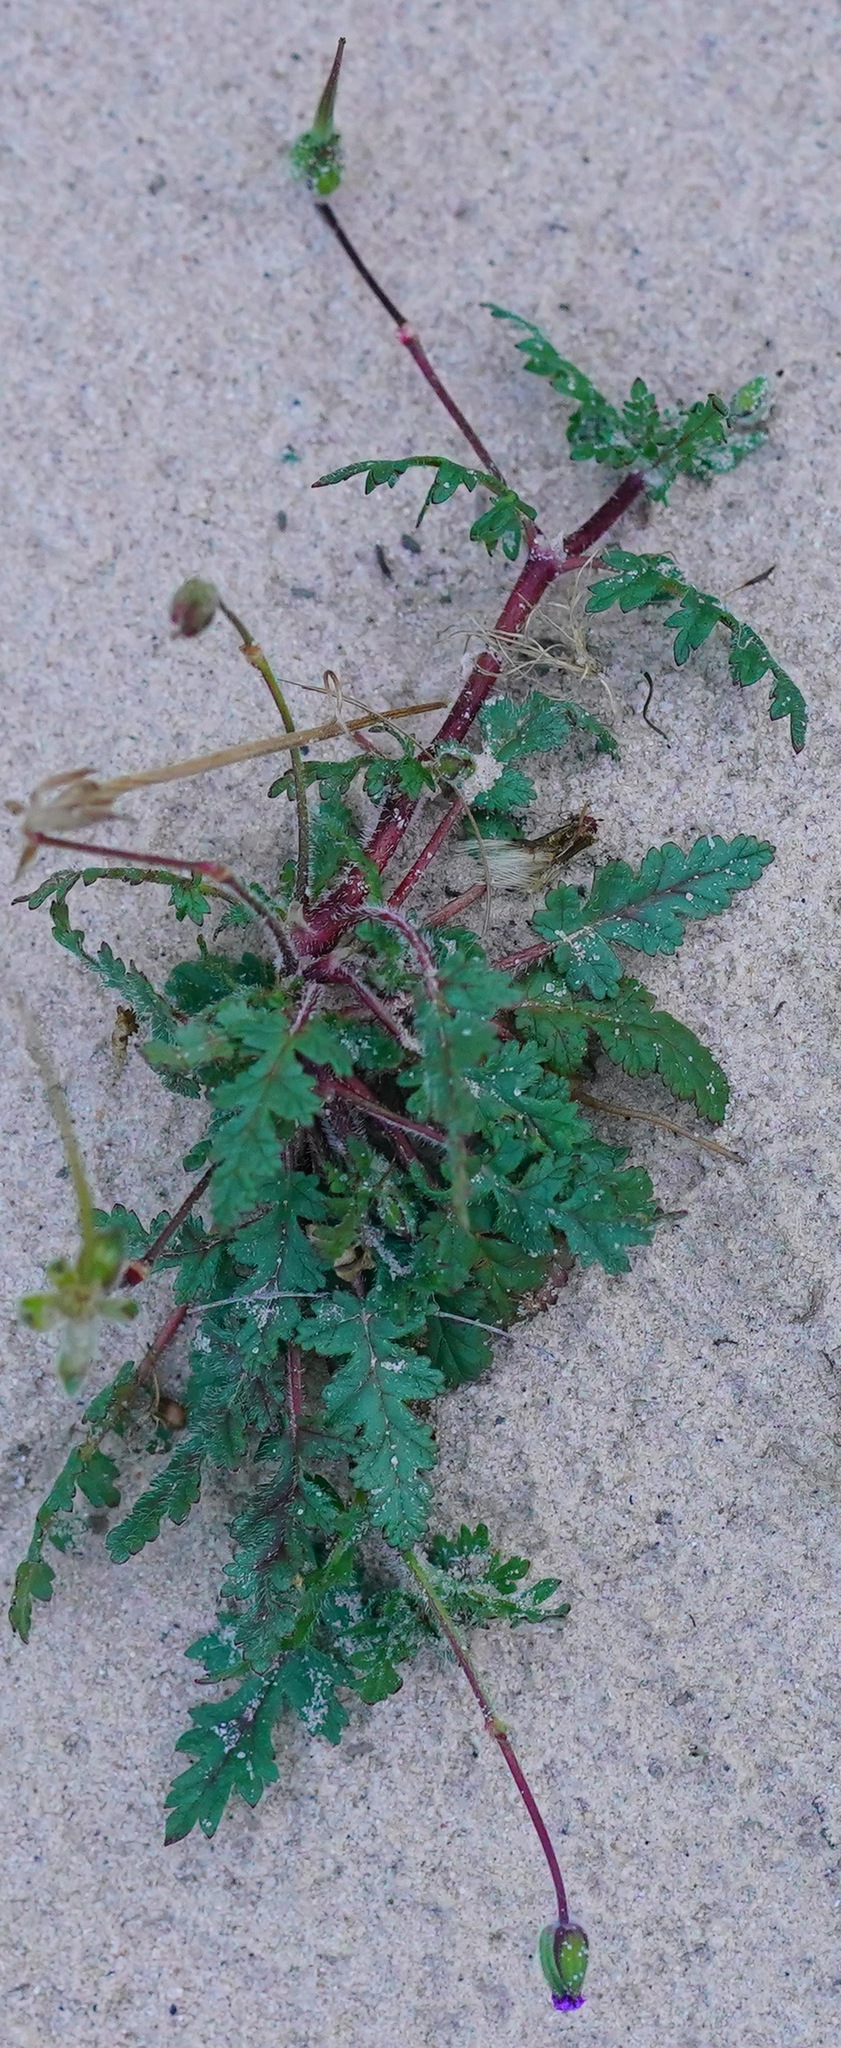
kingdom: Plantae
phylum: Tracheophyta
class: Magnoliopsida
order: Geraniales
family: Geraniaceae
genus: Erodium
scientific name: Erodium botrys
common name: Mediterranean stork's-bill
